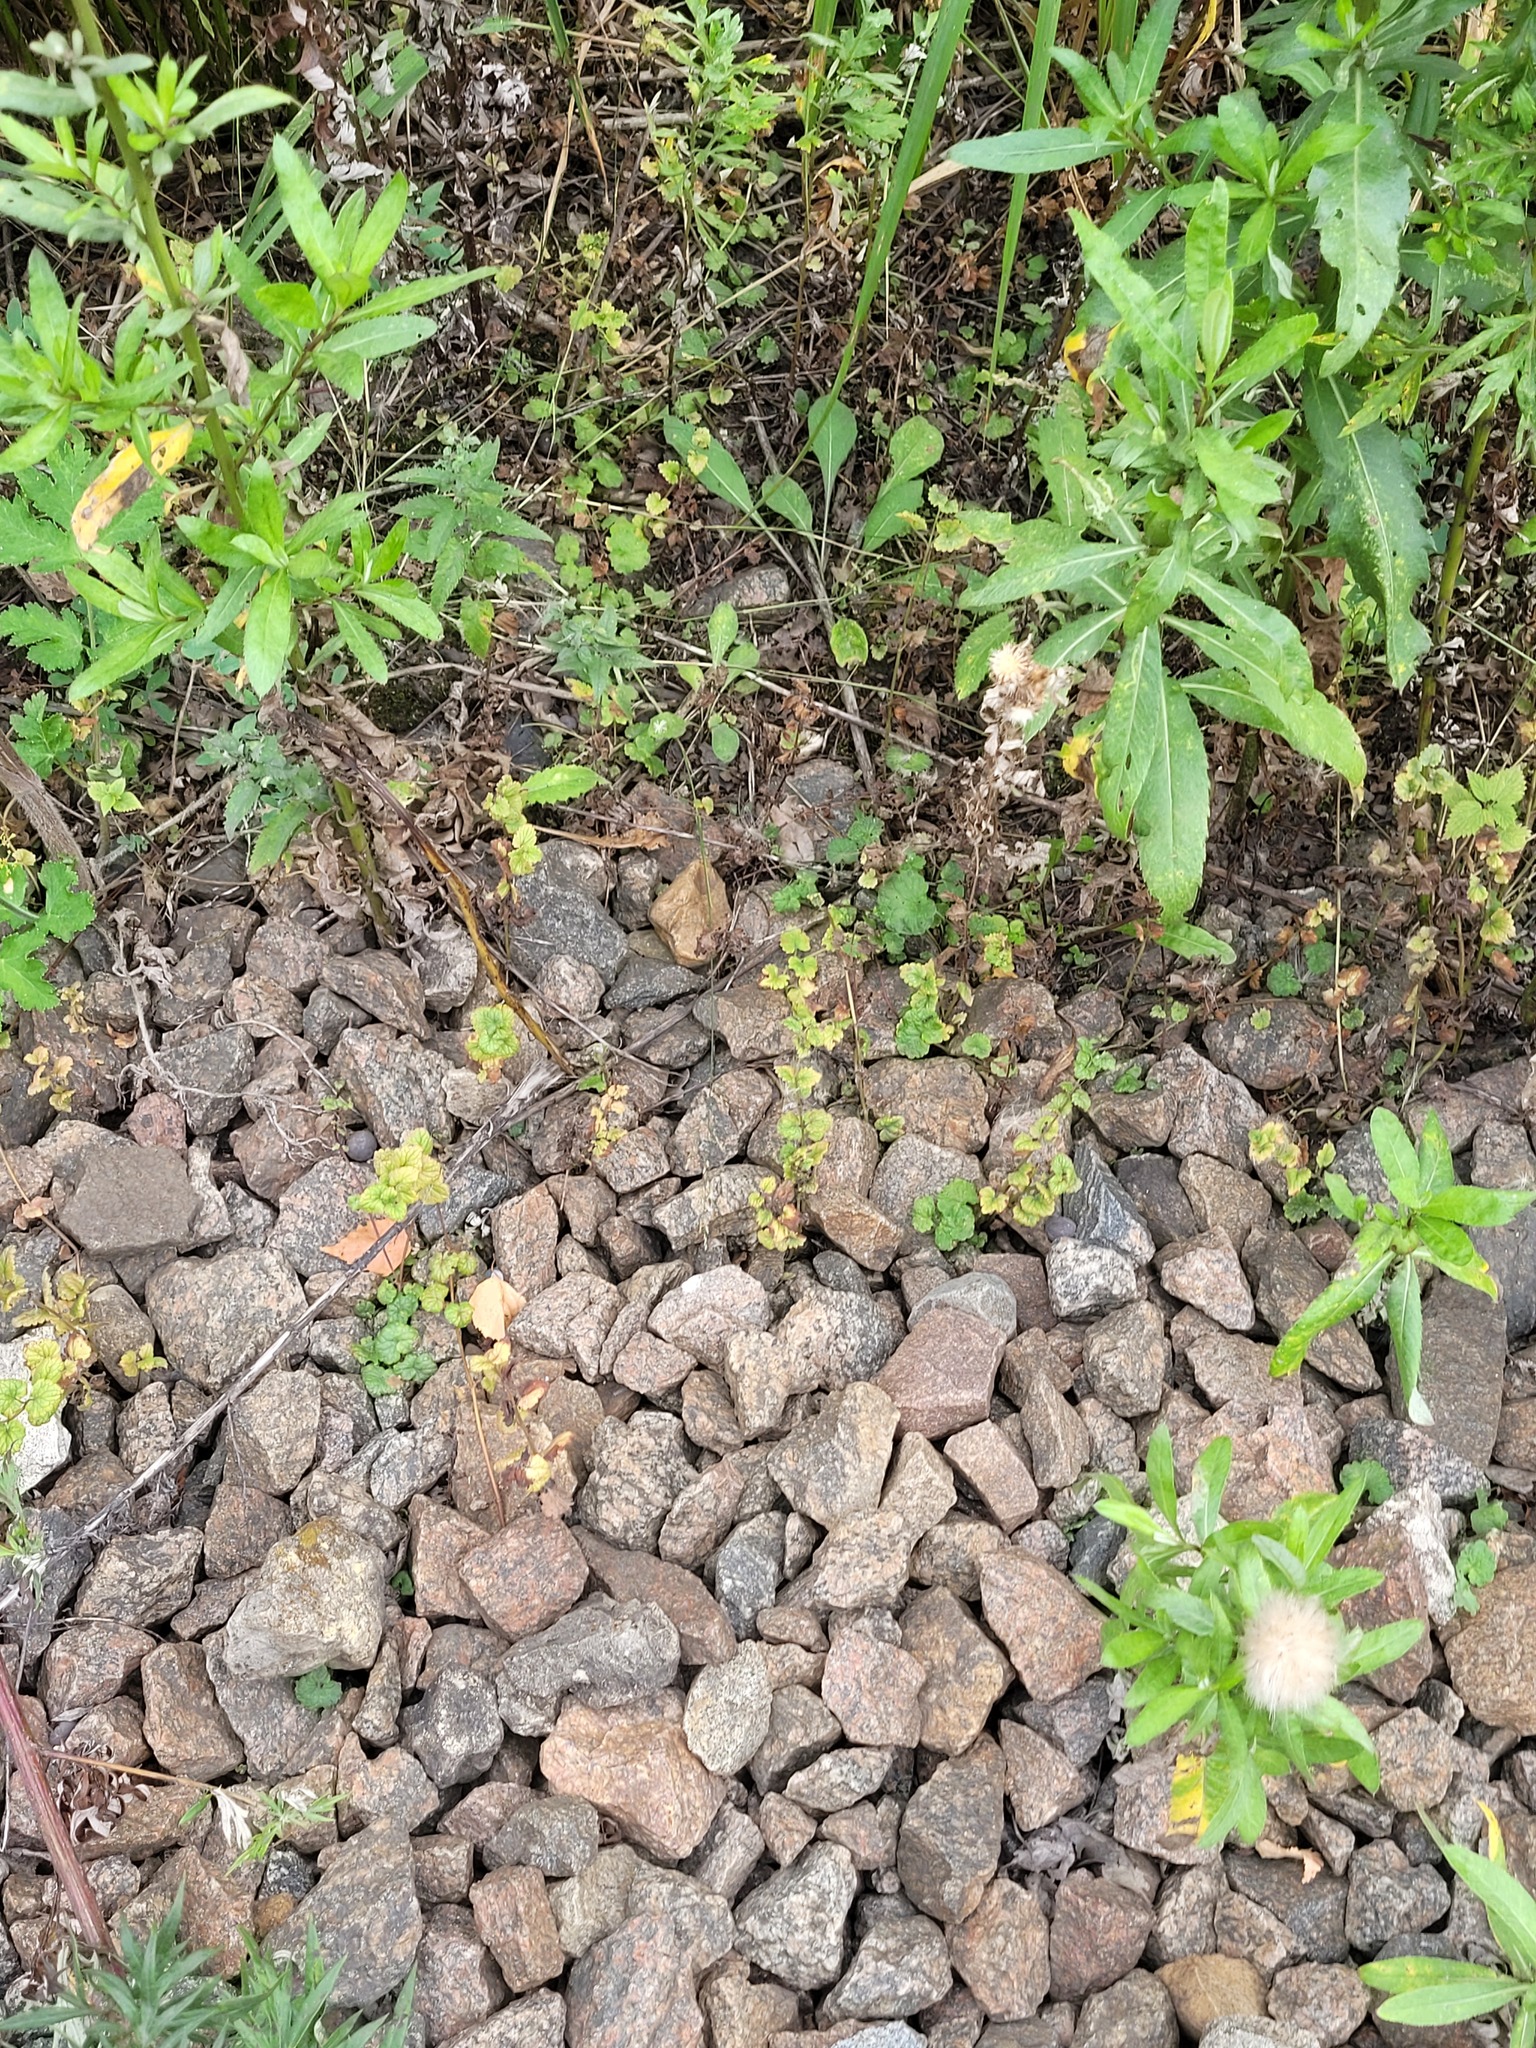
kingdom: Plantae
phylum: Tracheophyta
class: Magnoliopsida
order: Lamiales
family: Lamiaceae
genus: Glechoma
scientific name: Glechoma hederacea
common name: Ground ivy
